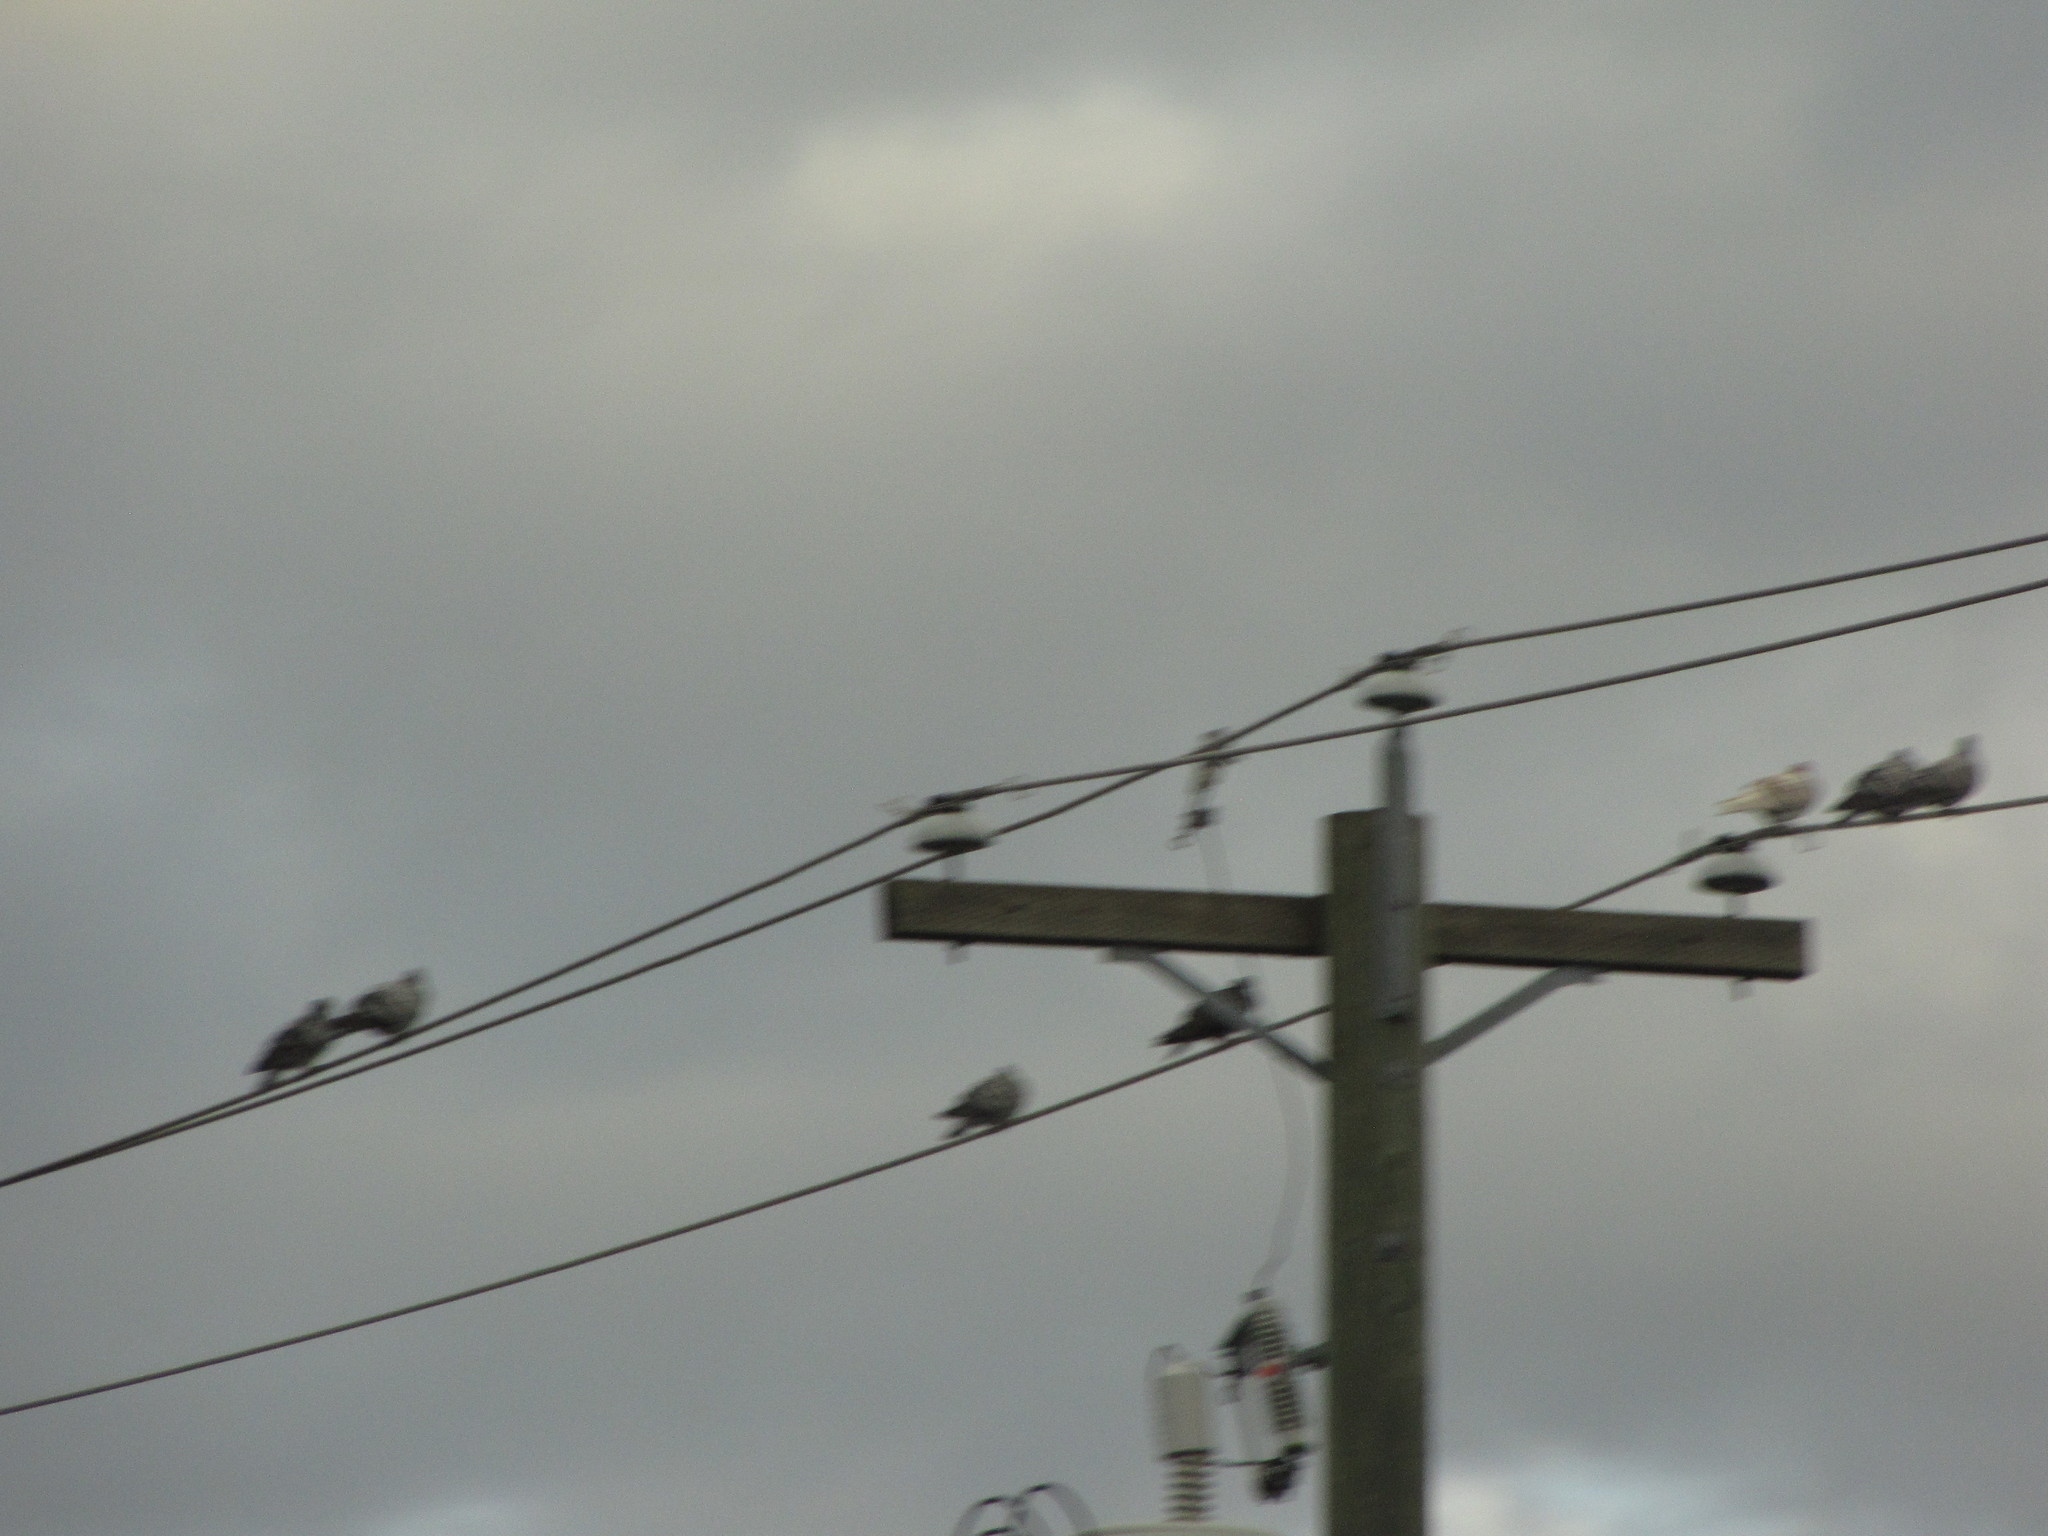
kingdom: Animalia
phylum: Chordata
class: Aves
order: Columbiformes
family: Columbidae
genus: Columba
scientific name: Columba livia
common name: Rock pigeon
